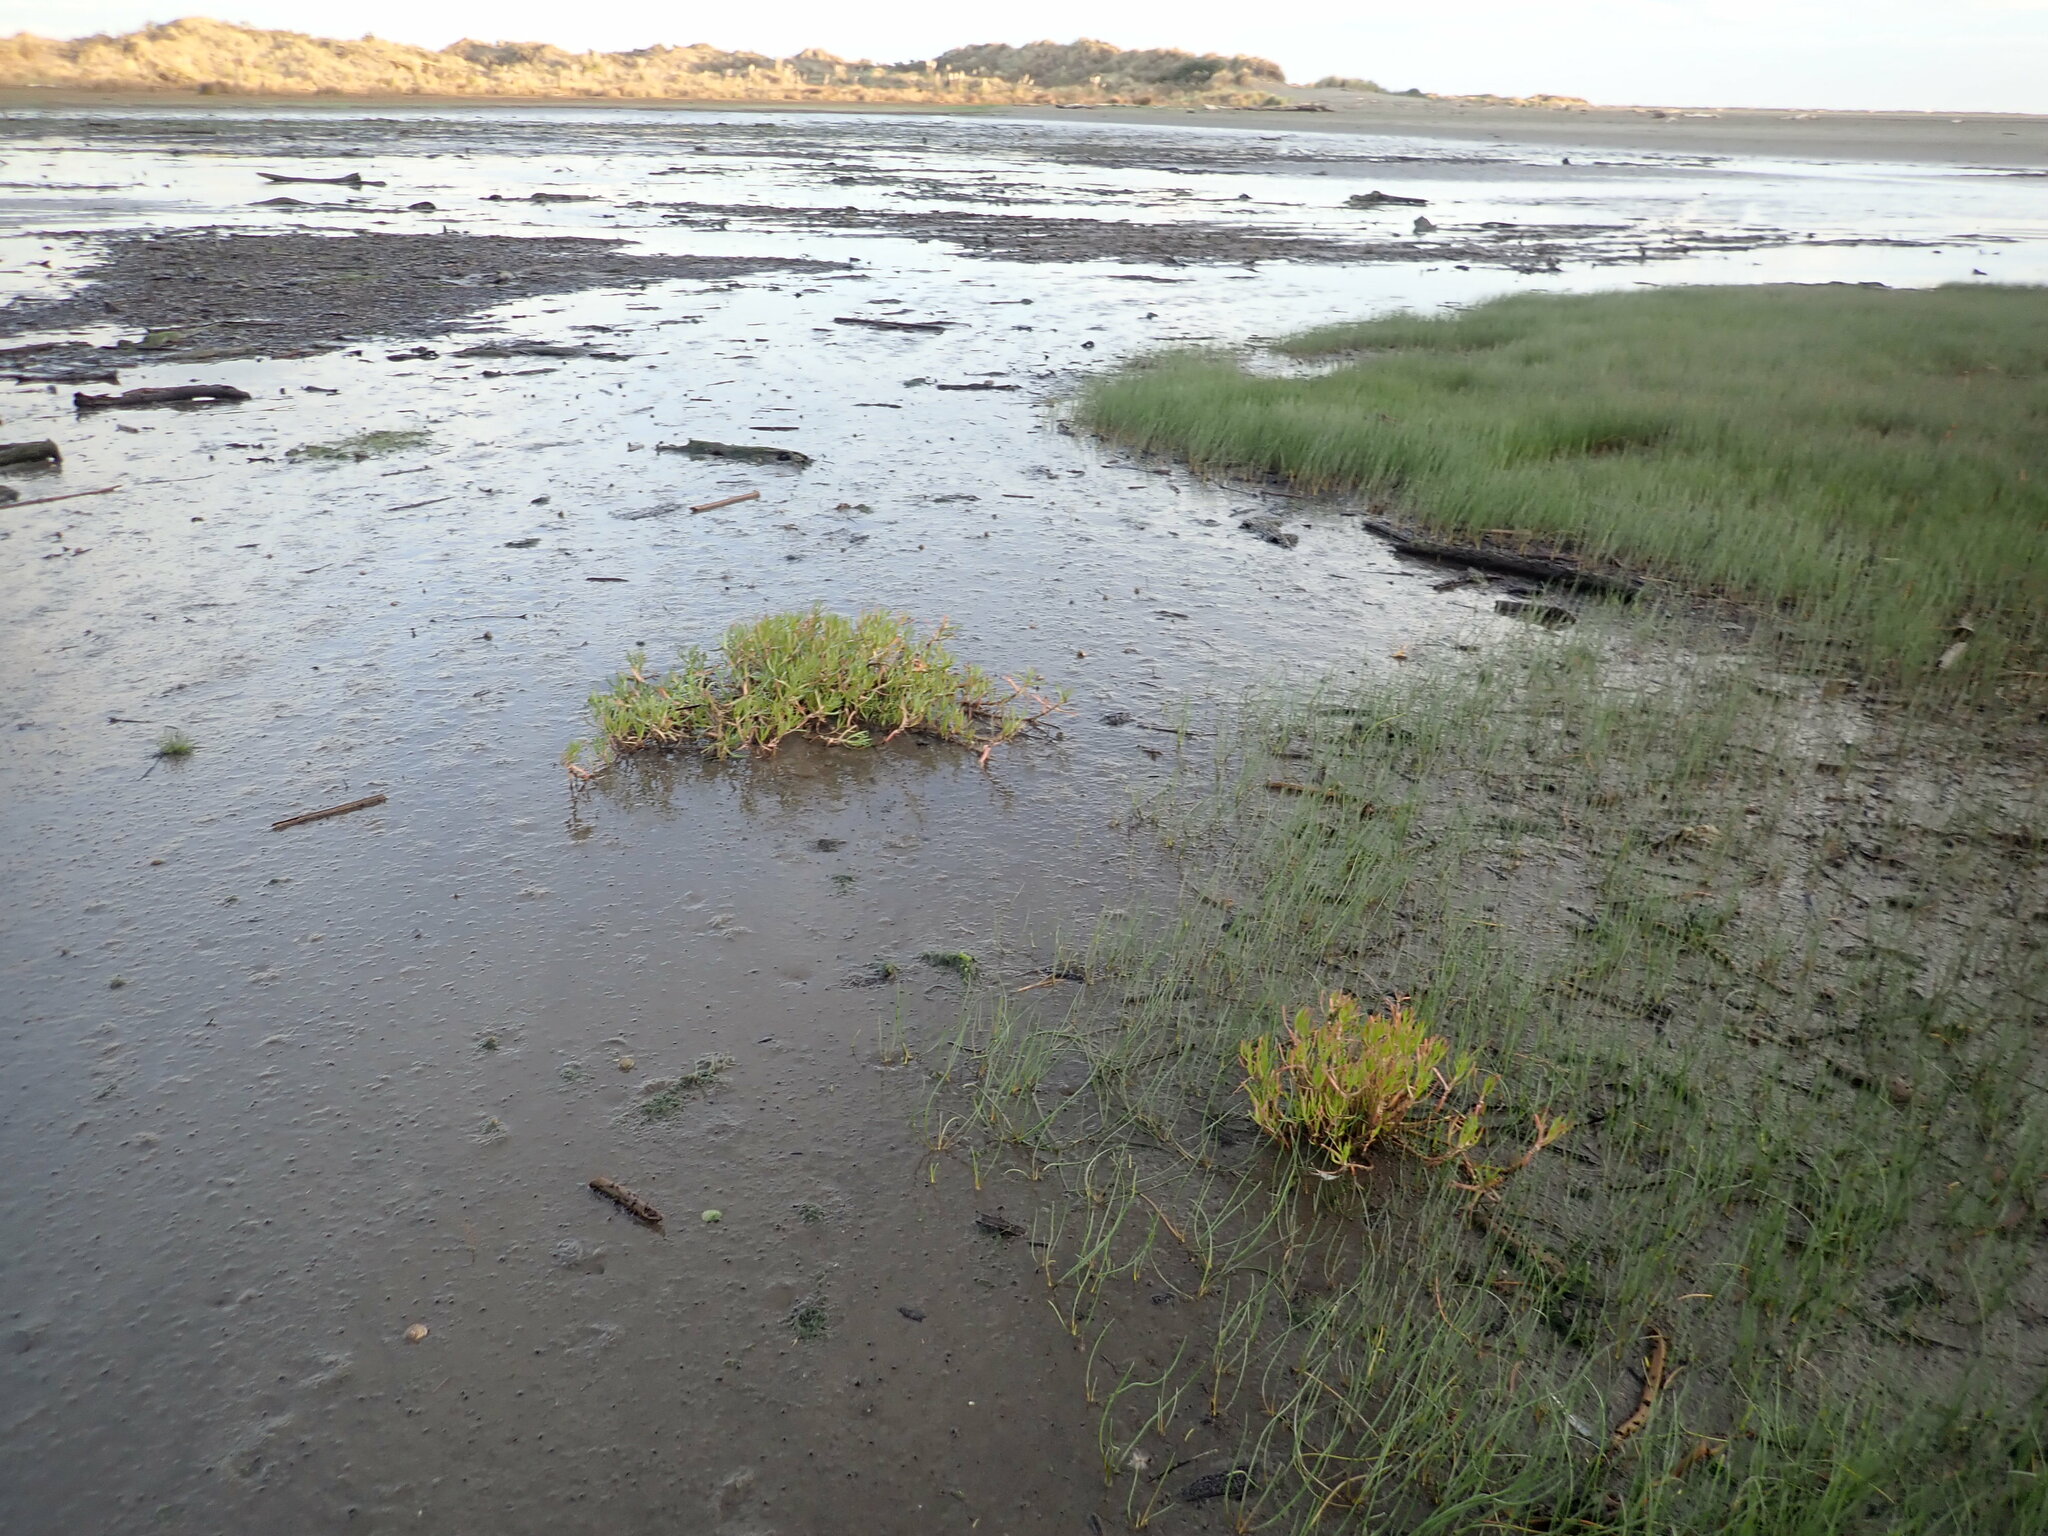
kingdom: Plantae
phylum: Tracheophyta
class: Magnoliopsida
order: Asterales
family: Asteraceae
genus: Cotula
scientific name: Cotula coronopifolia
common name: Buttonweed
